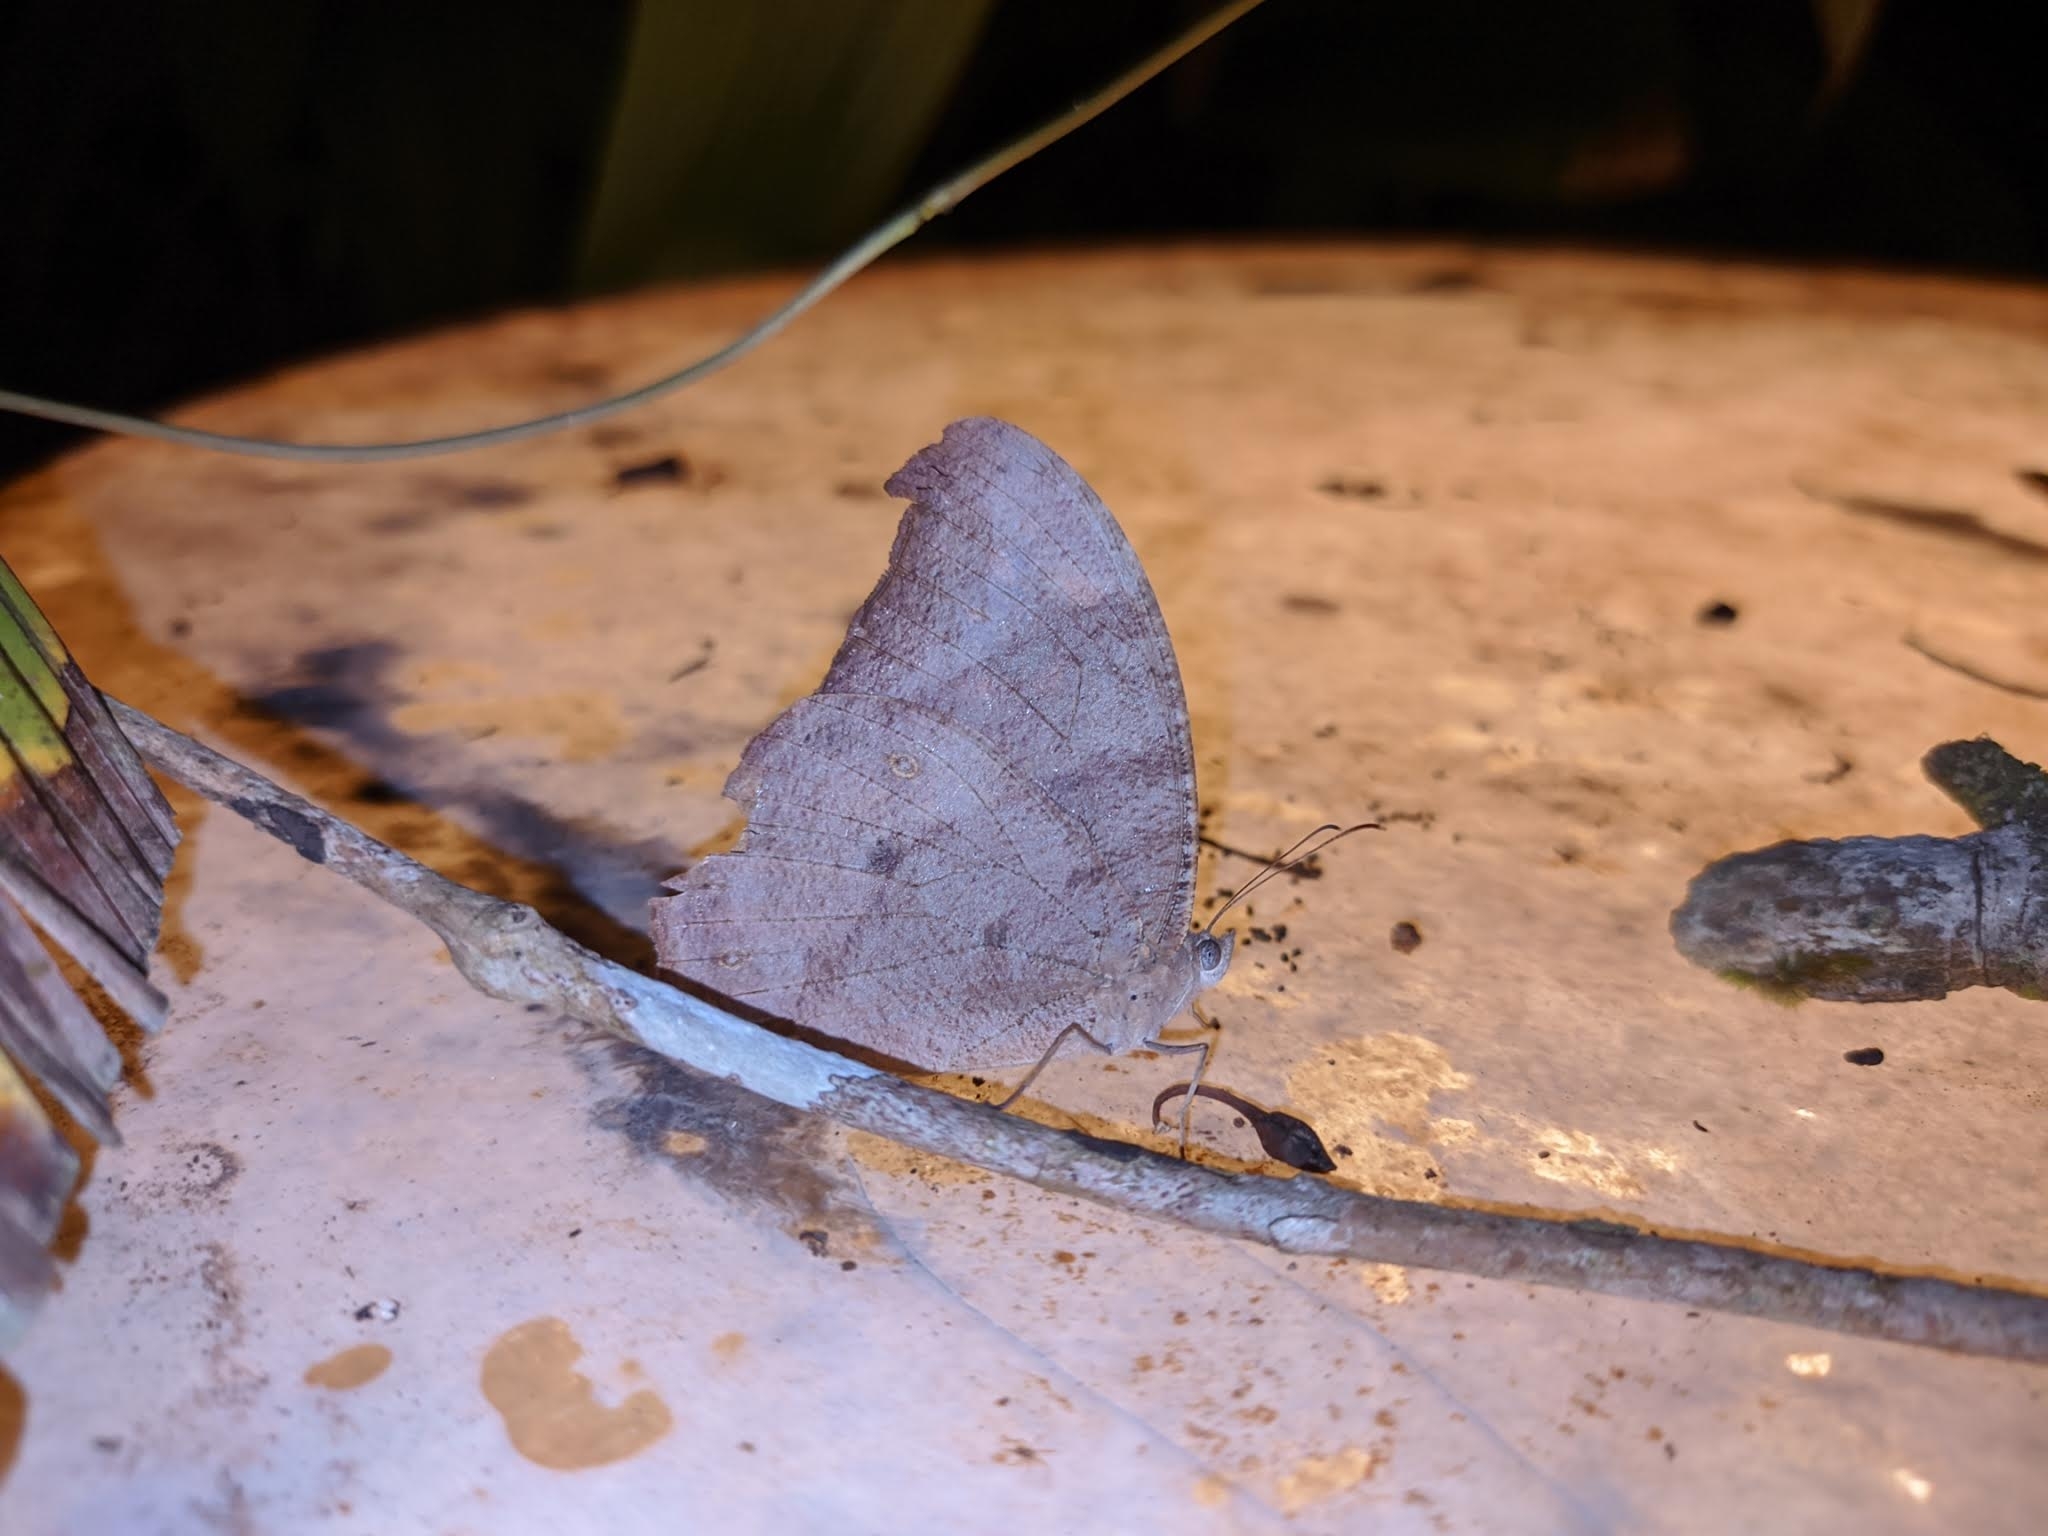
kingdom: Animalia
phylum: Arthropoda
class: Insecta
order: Lepidoptera
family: Nymphalidae
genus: Melanitis
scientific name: Melanitis leda
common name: Twilight brown
